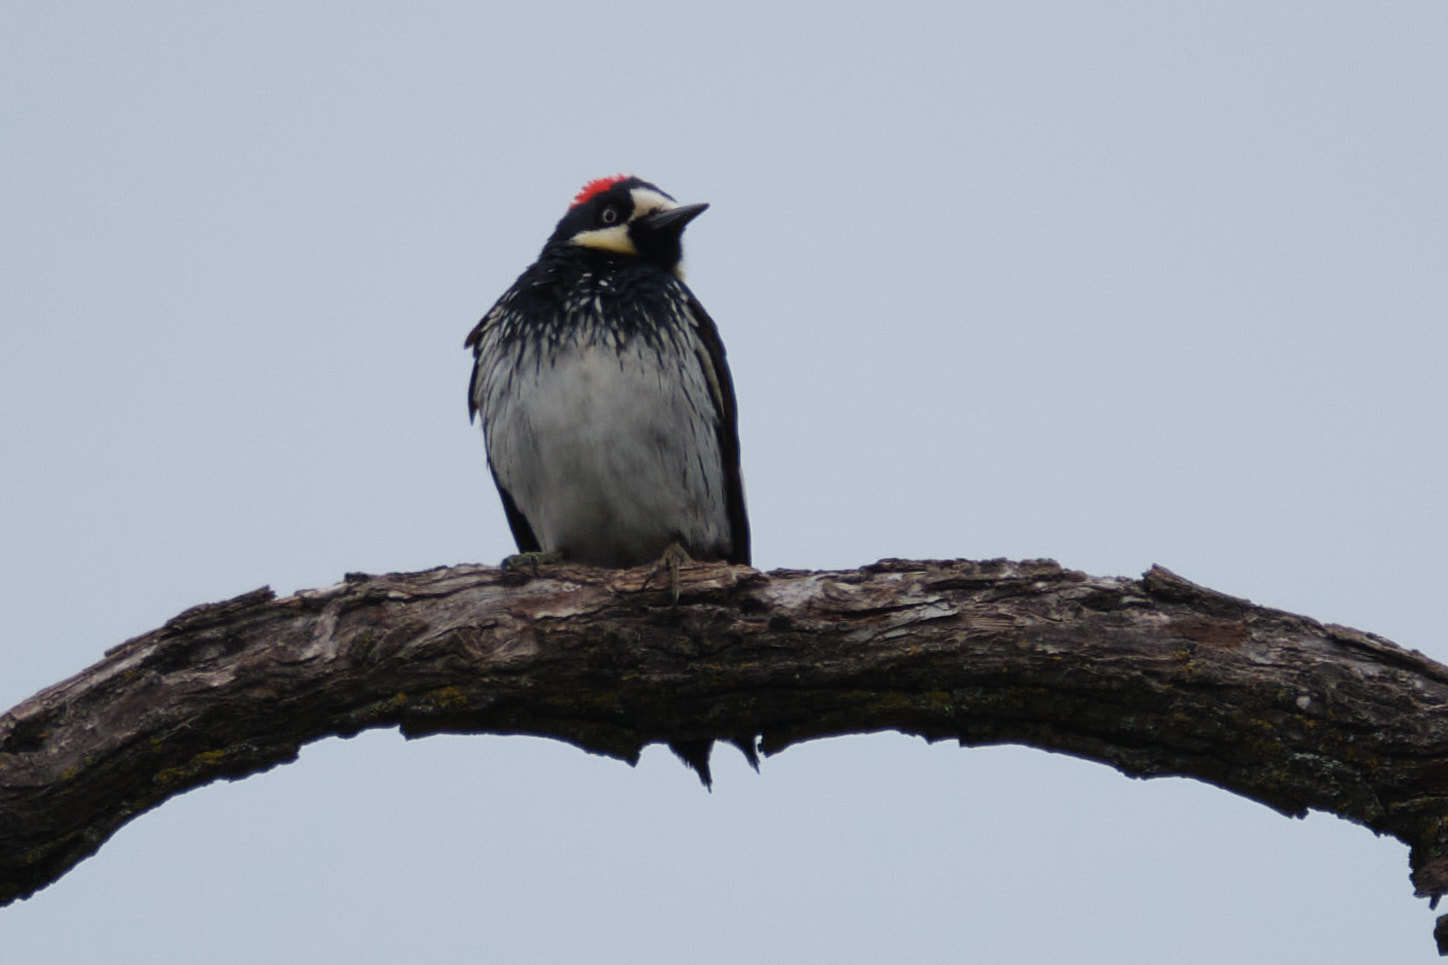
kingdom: Animalia
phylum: Chordata
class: Aves
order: Piciformes
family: Picidae
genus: Melanerpes
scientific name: Melanerpes formicivorus
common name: Acorn woodpecker
